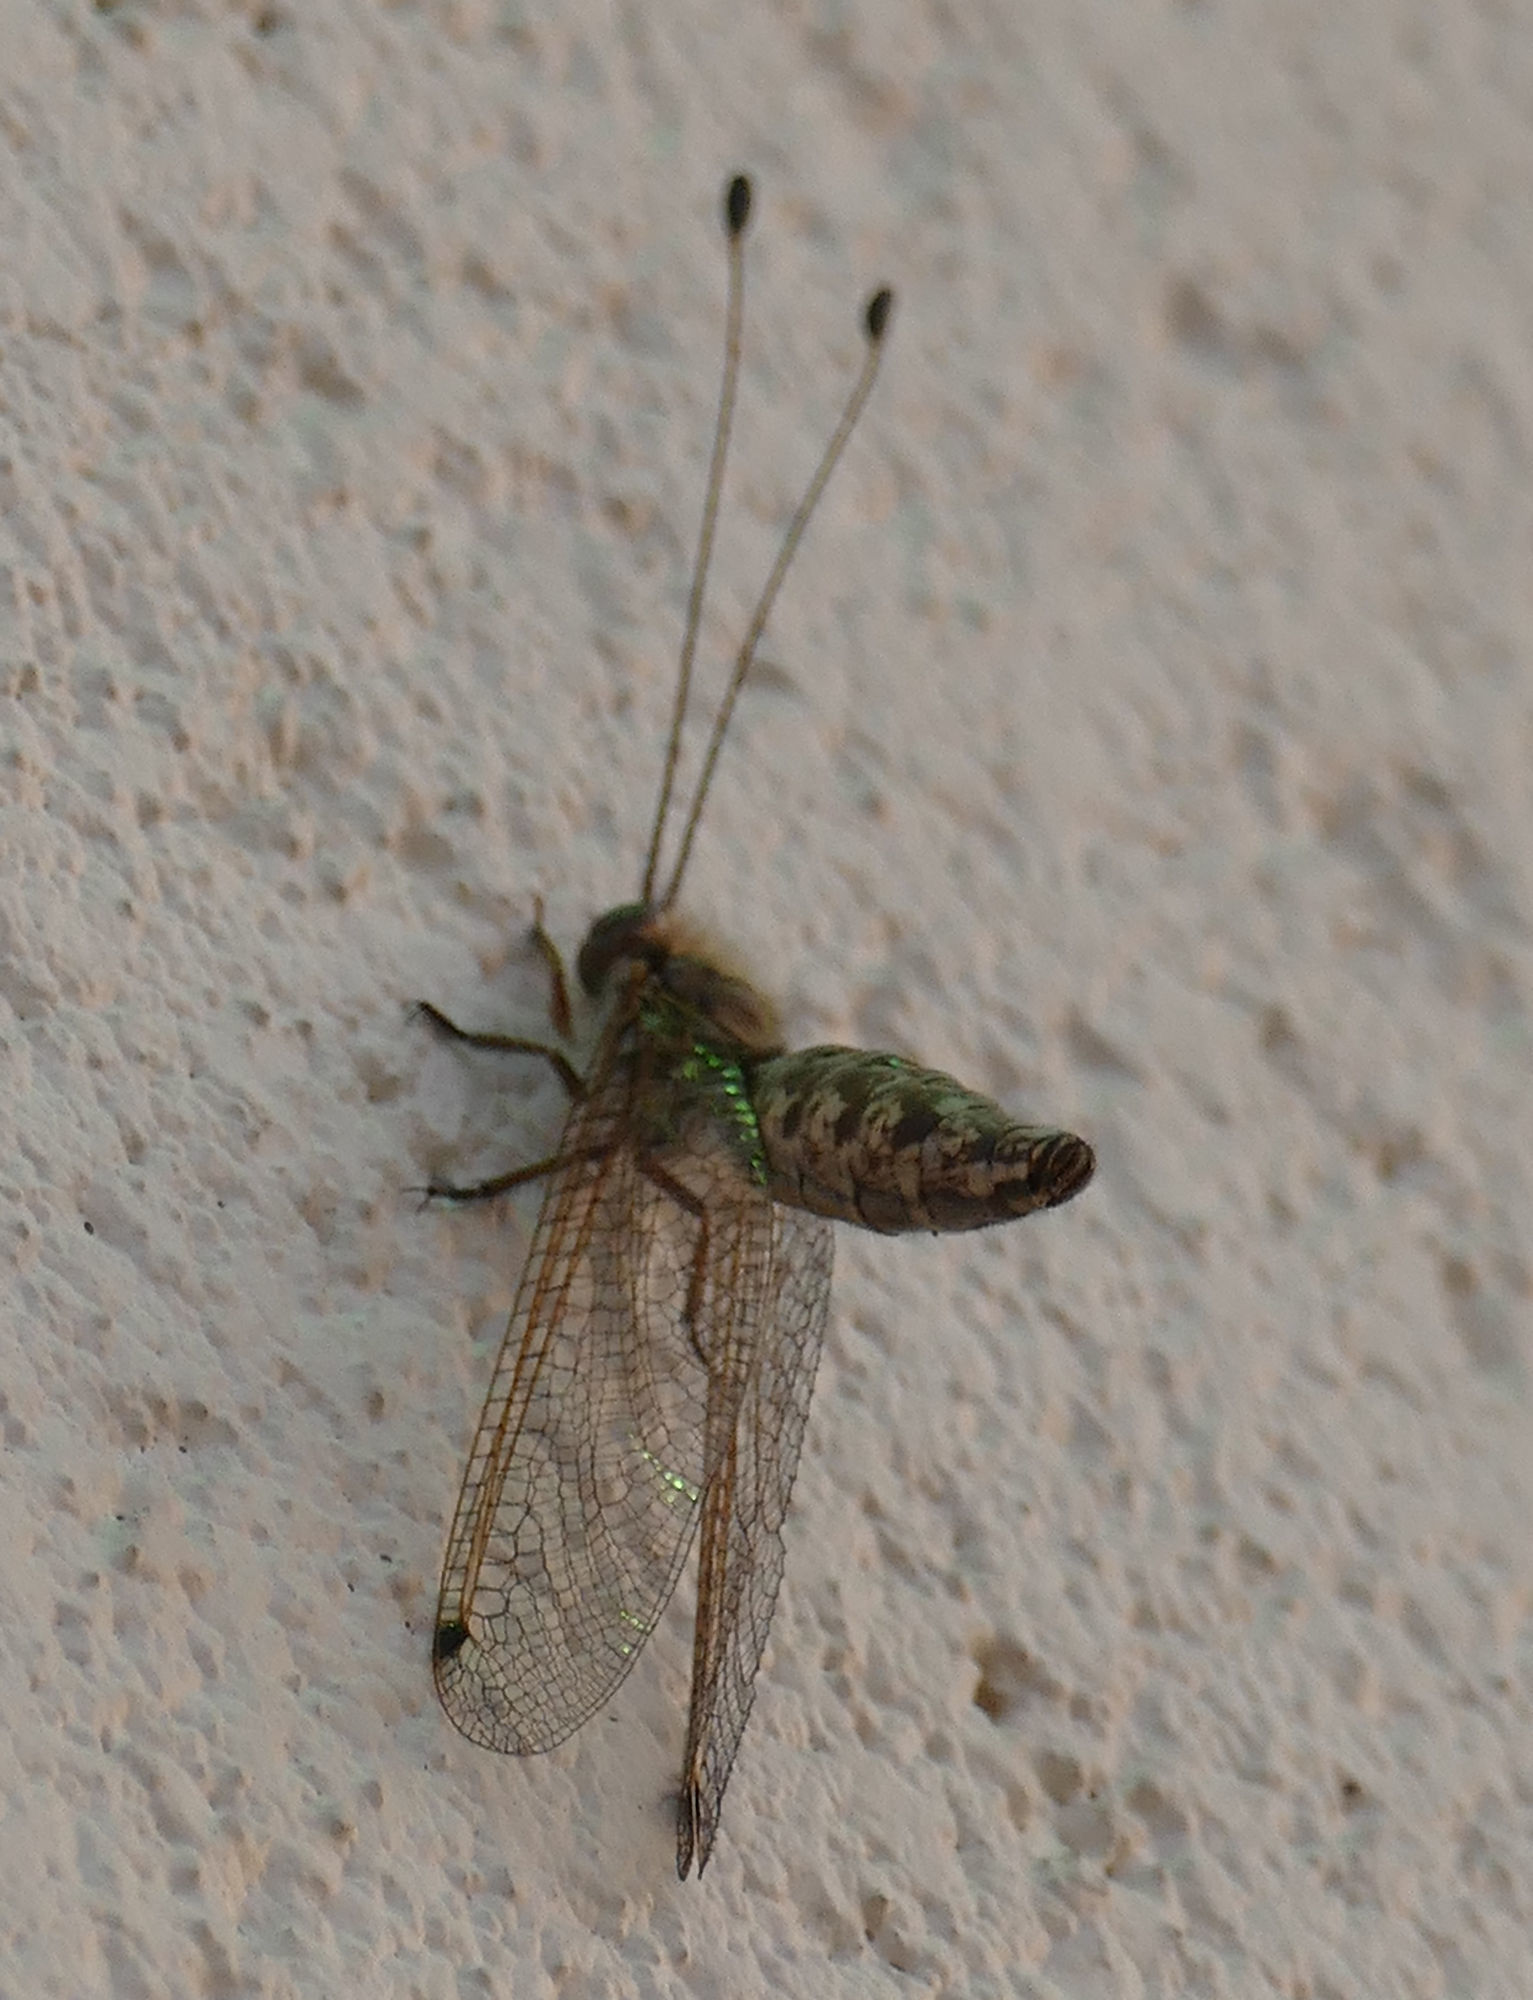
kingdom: Animalia
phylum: Arthropoda
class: Insecta
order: Neuroptera
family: Ascalaphidae
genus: Ululodes
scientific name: Ululodes macleayanus
